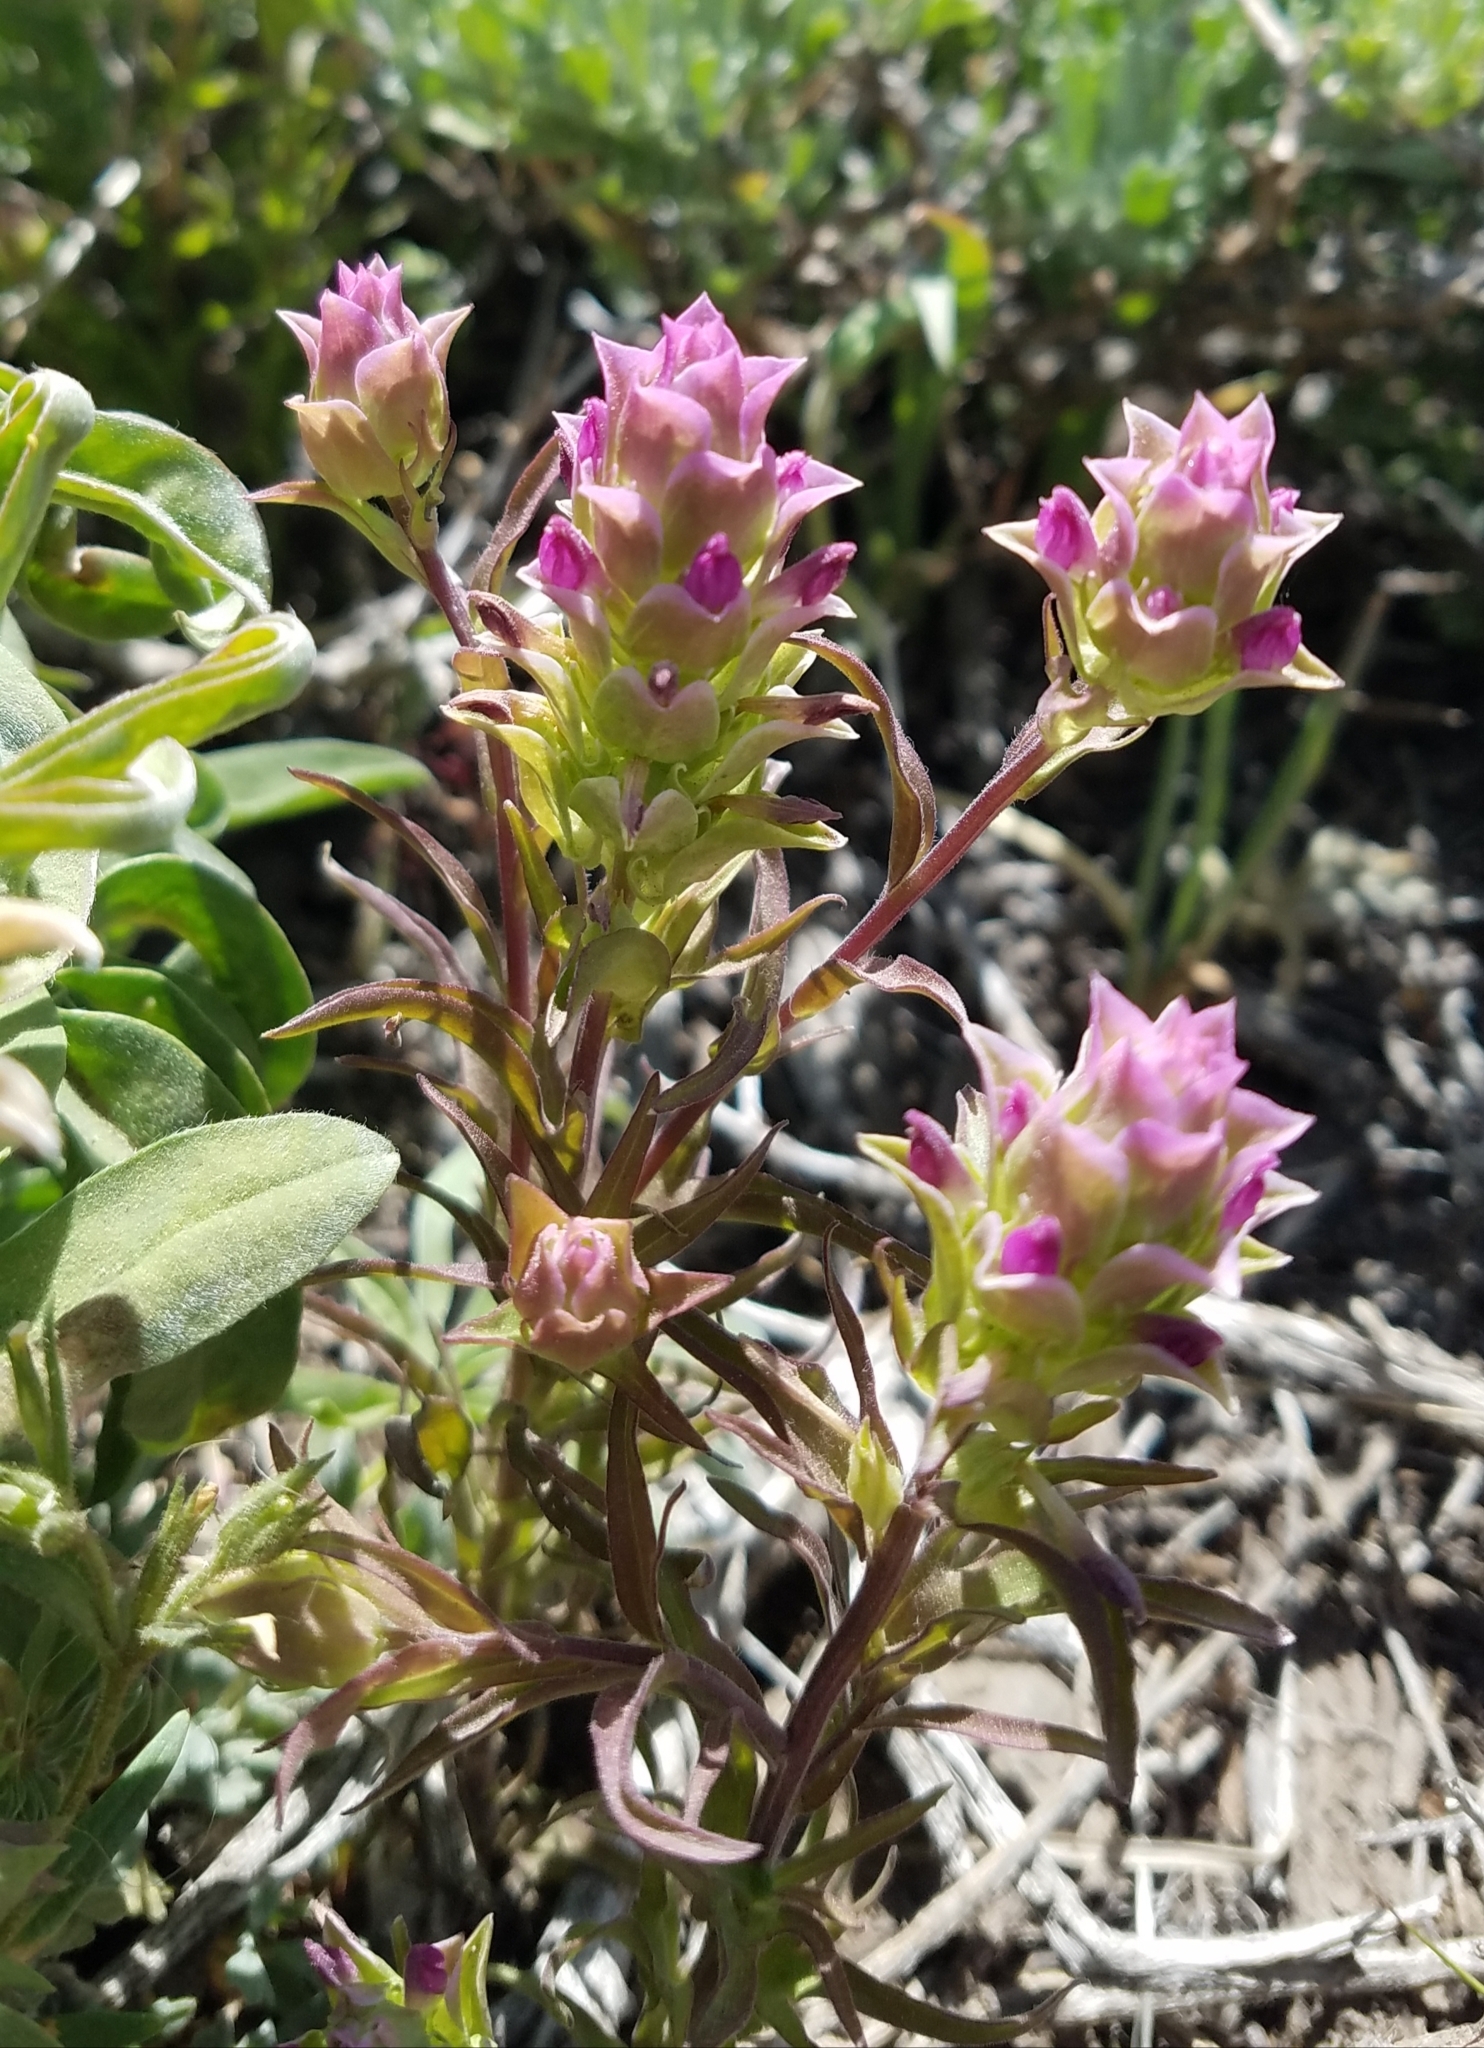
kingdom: Plantae
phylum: Tracheophyta
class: Magnoliopsida
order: Lamiales
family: Orobanchaceae
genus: Orthocarpus
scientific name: Orthocarpus cuspidatus
